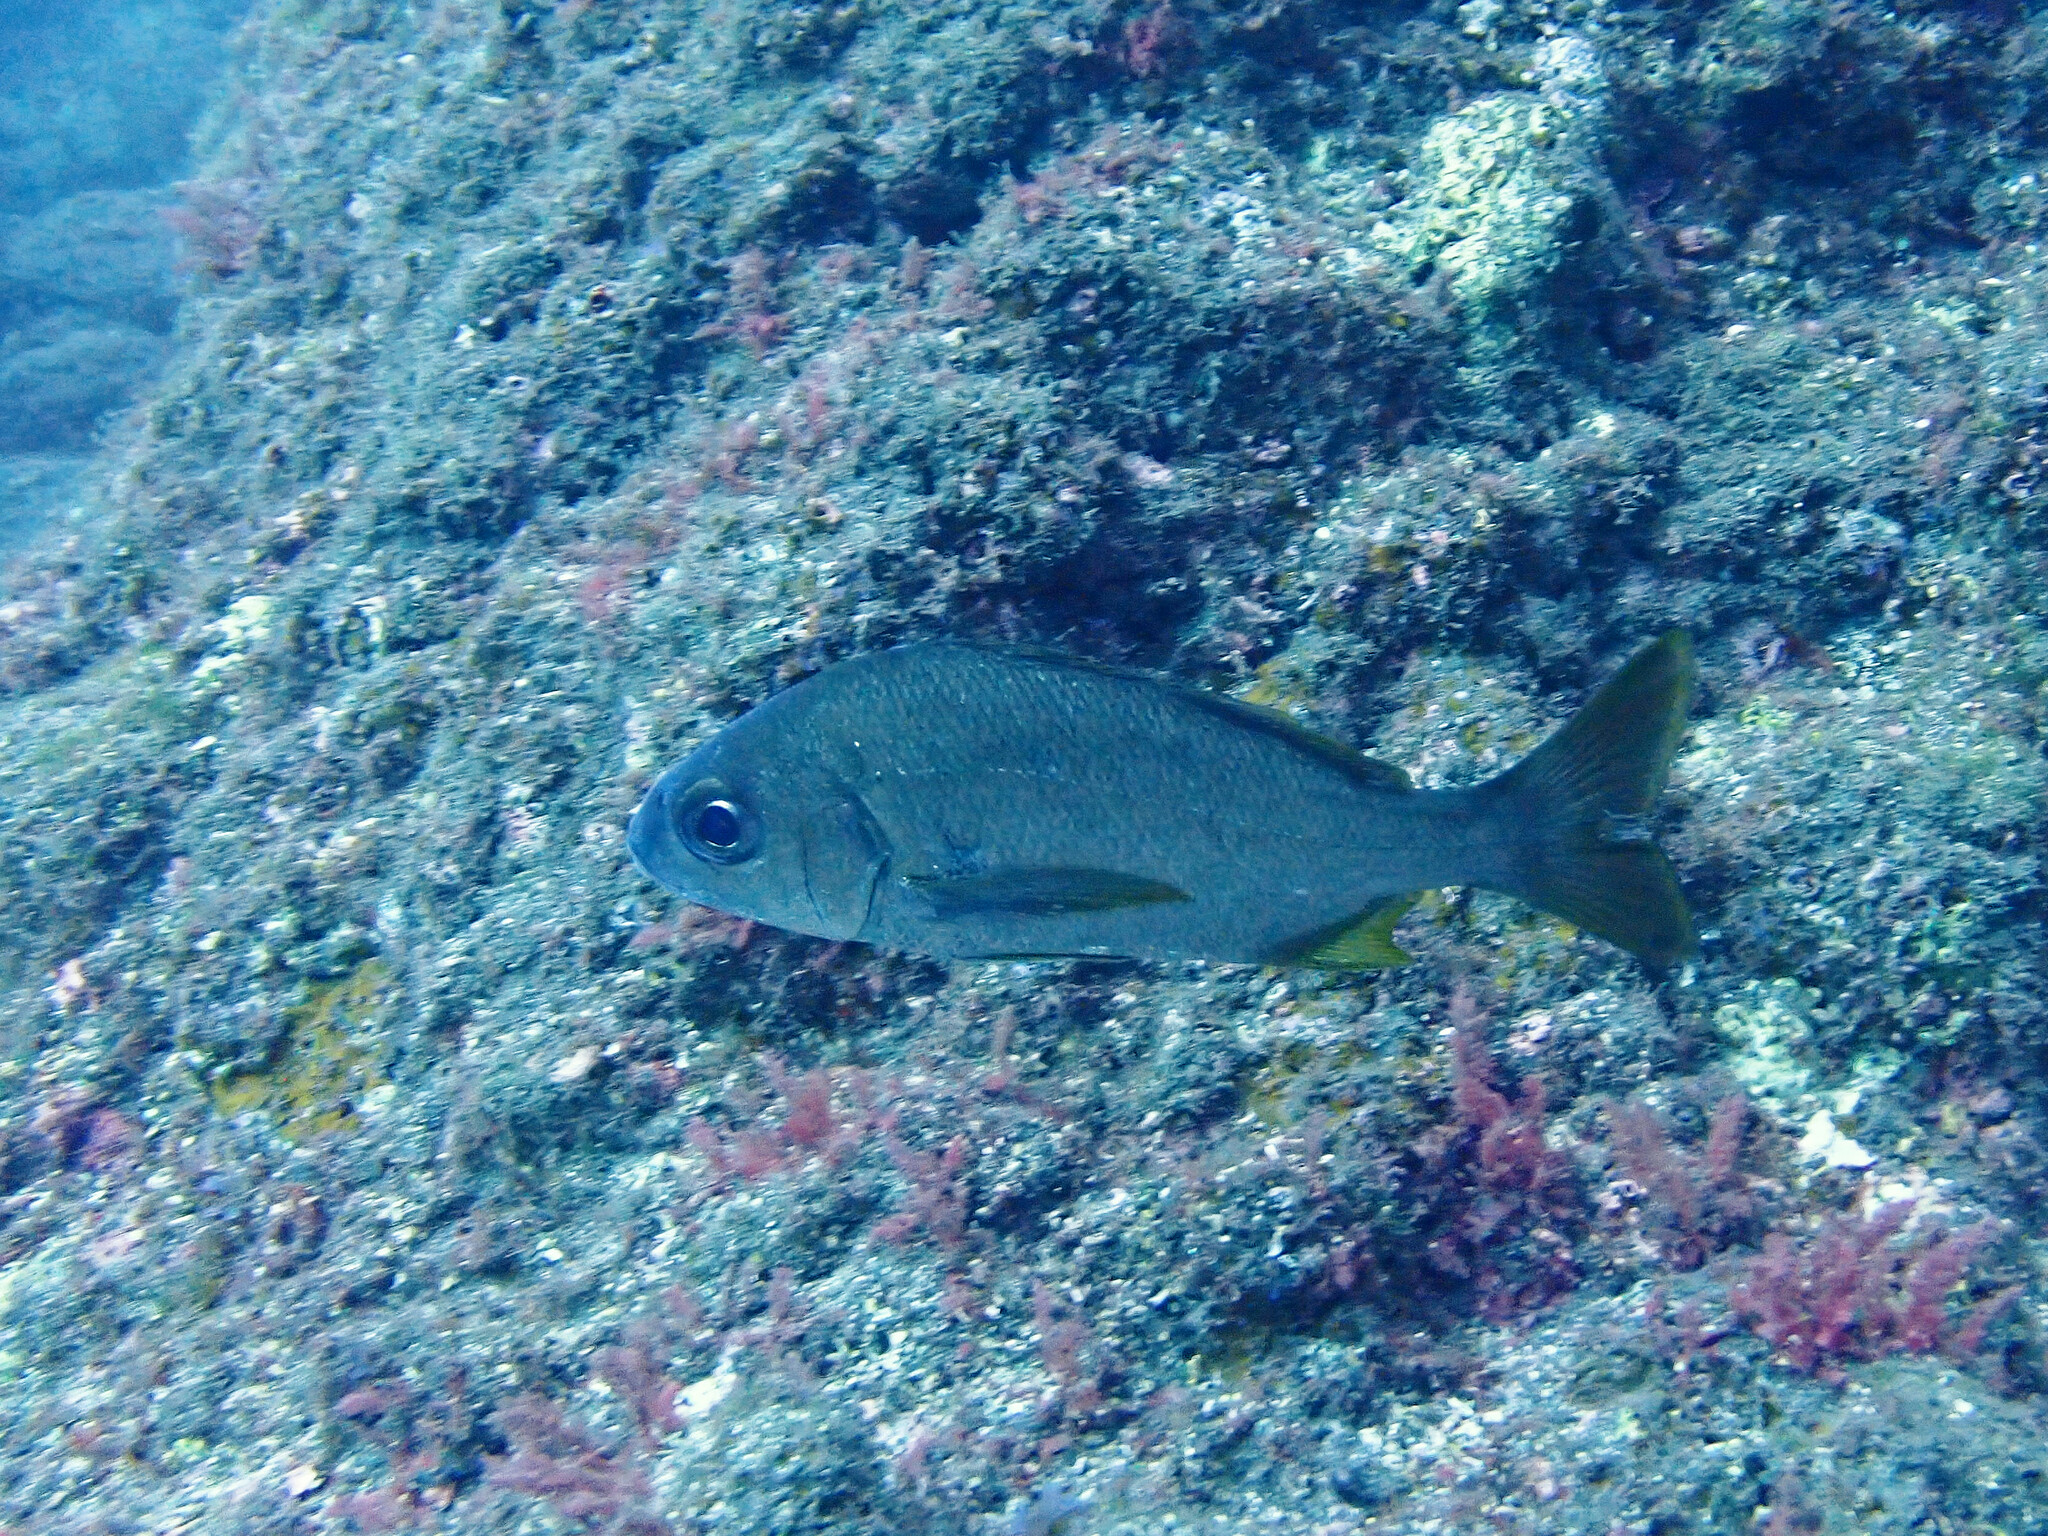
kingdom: Animalia
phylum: Chordata
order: Perciformes
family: Haemulidae
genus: Pomadasys
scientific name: Pomadasys incisus
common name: Bastard grunt
